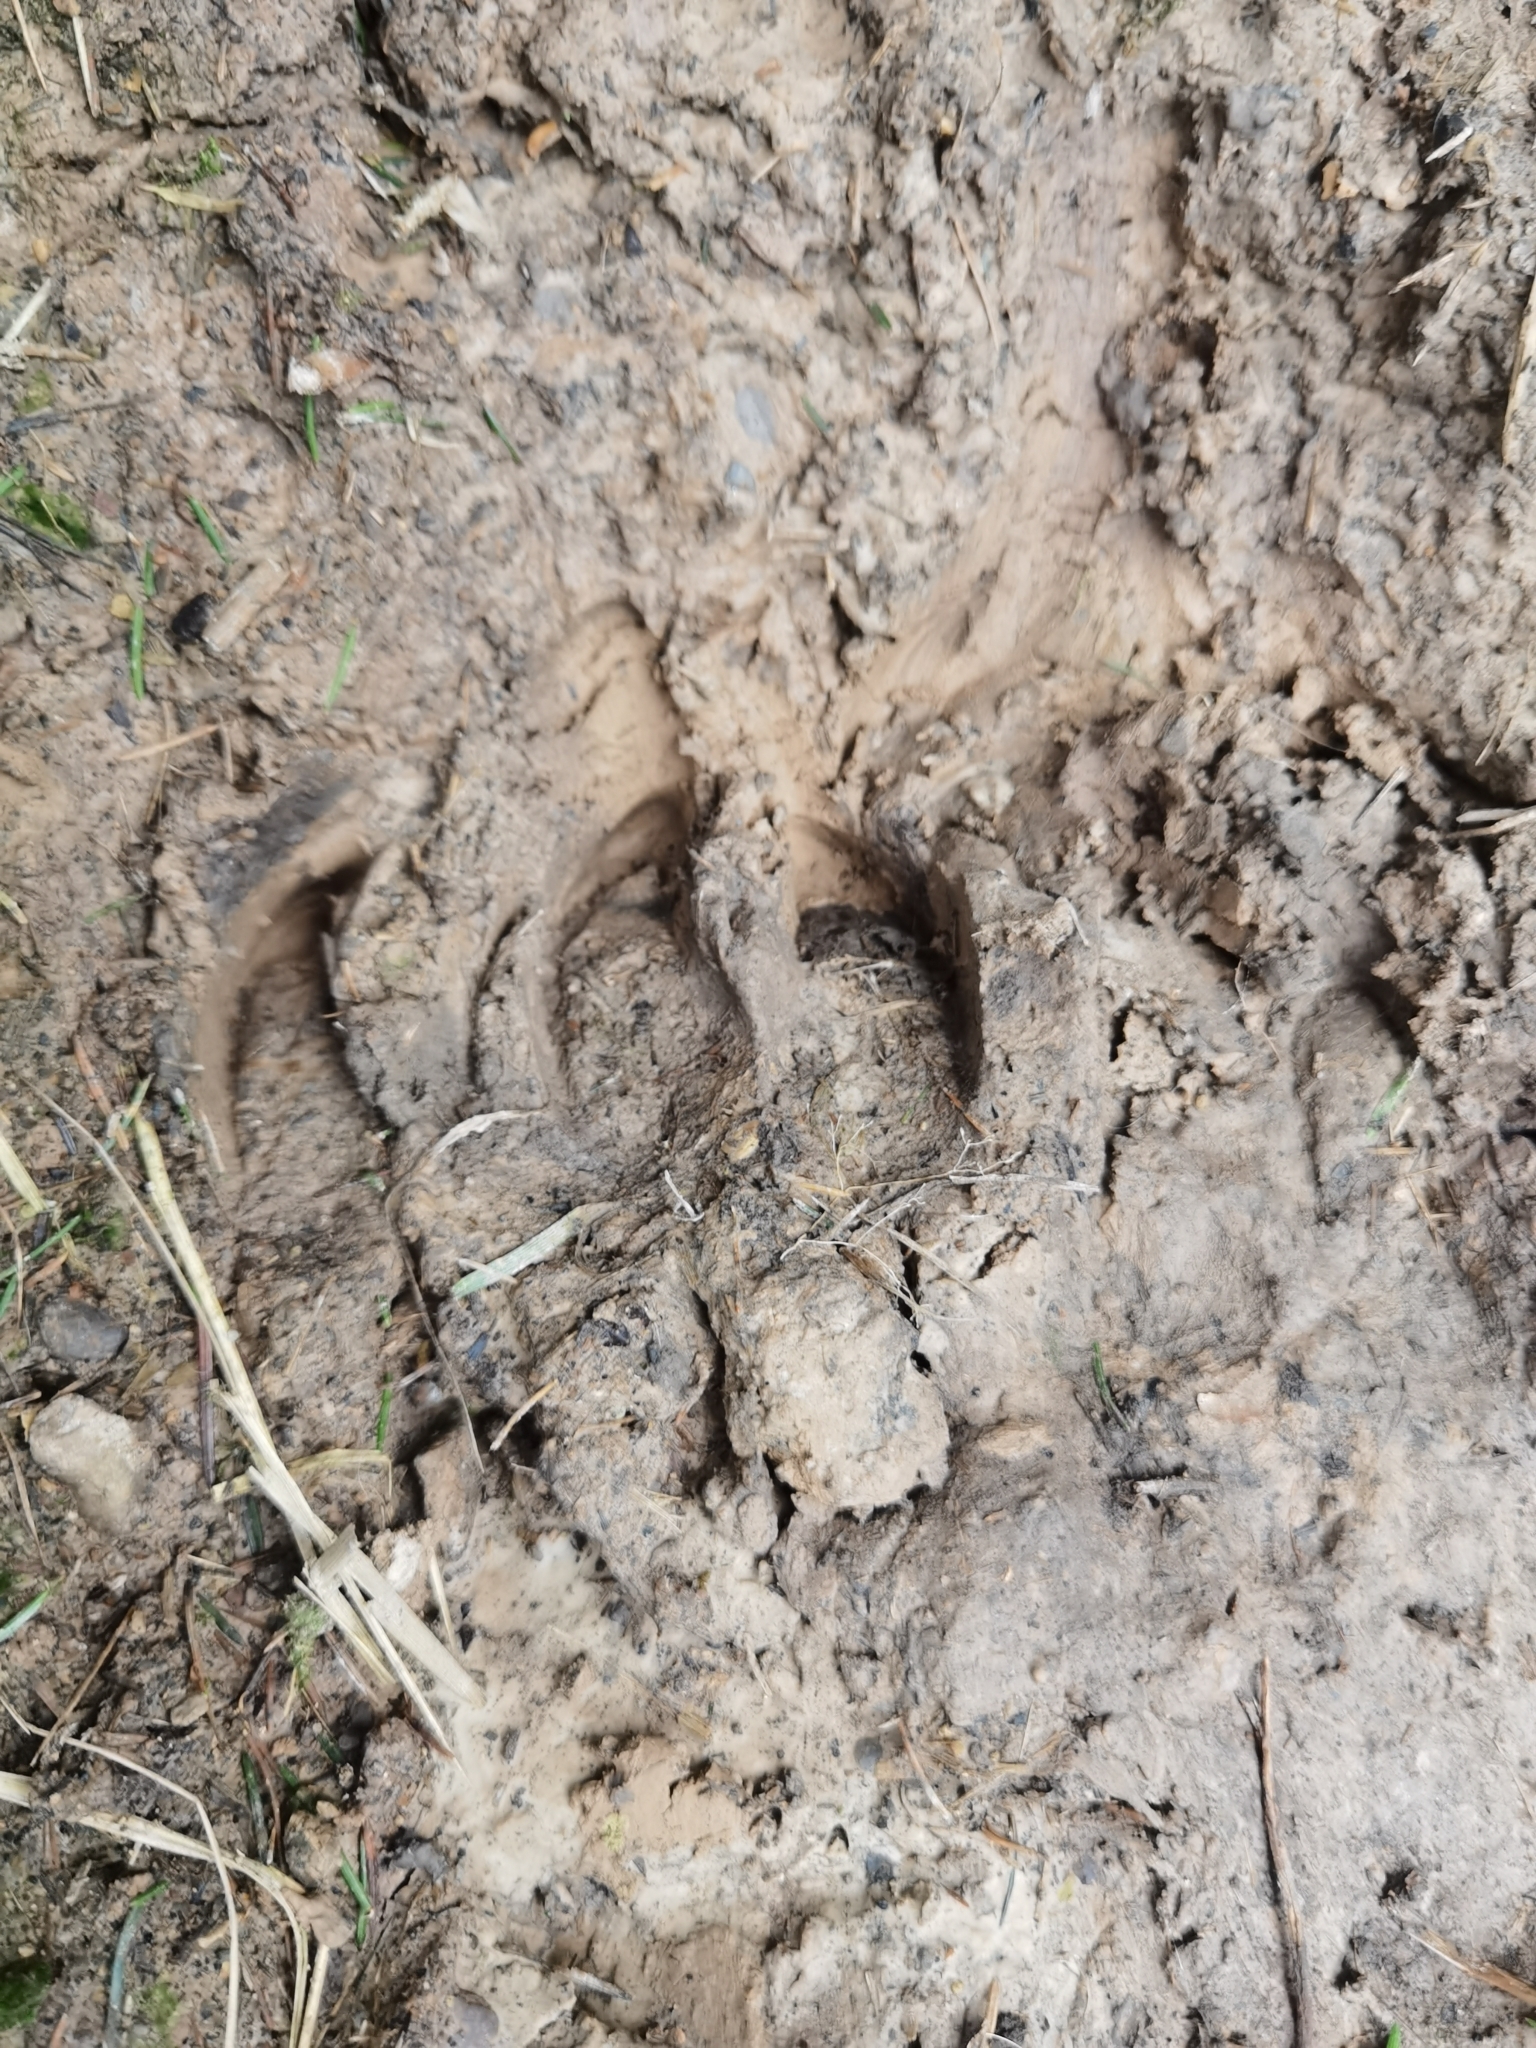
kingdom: Animalia
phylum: Chordata
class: Mammalia
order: Artiodactyla
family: Suidae
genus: Sus
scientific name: Sus scrofa
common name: Wild boar
